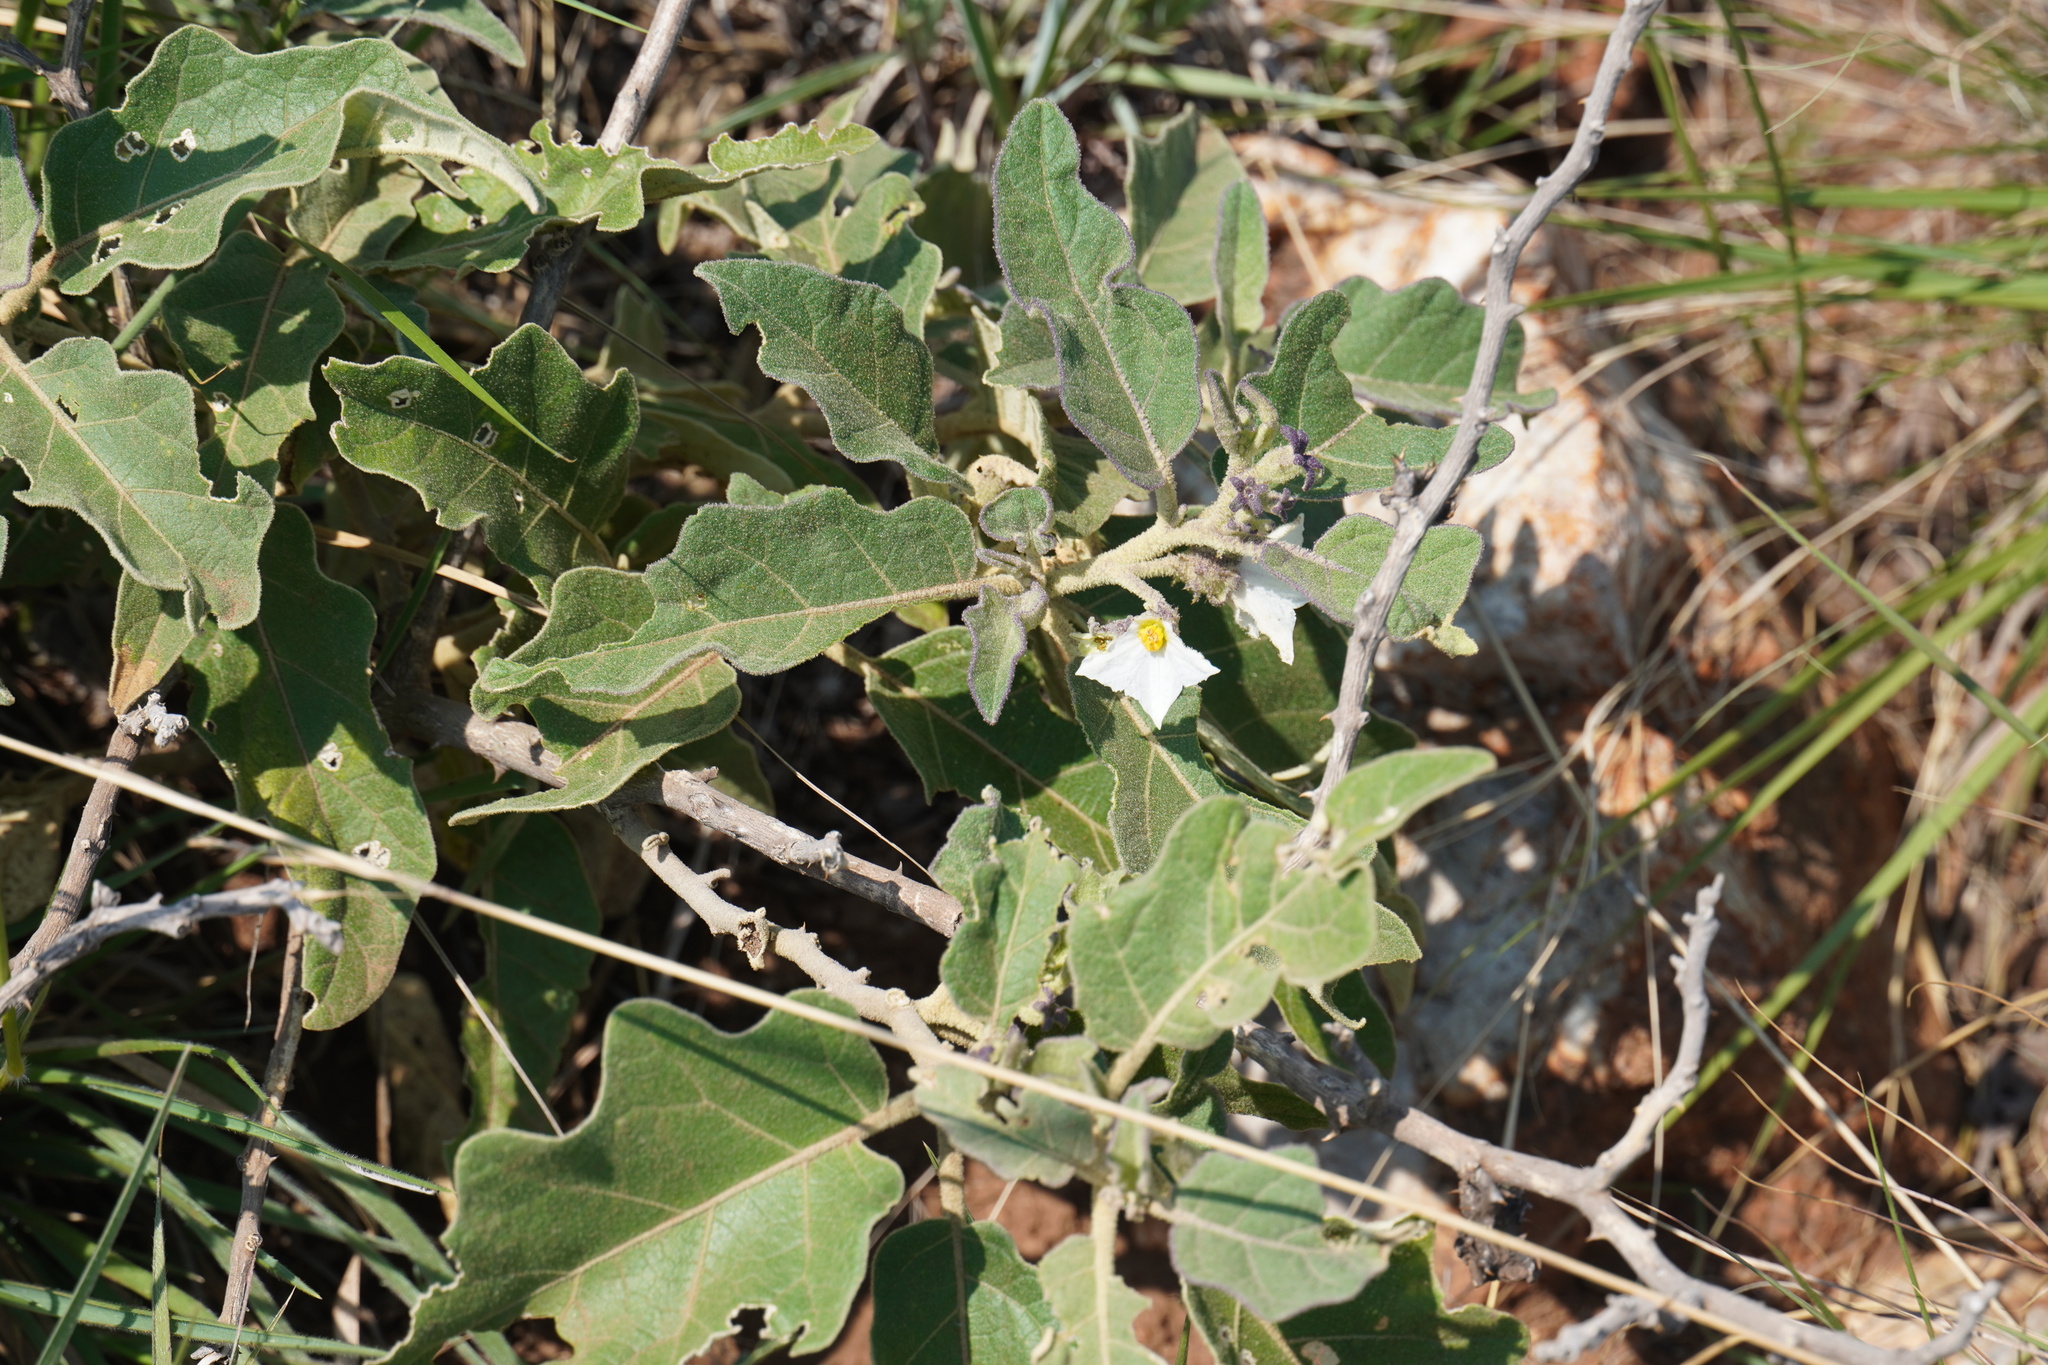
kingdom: Plantae
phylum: Tracheophyta
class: Magnoliopsida
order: Solanales
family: Solanaceae
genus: Solanum
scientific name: Solanum lichtensteinii
